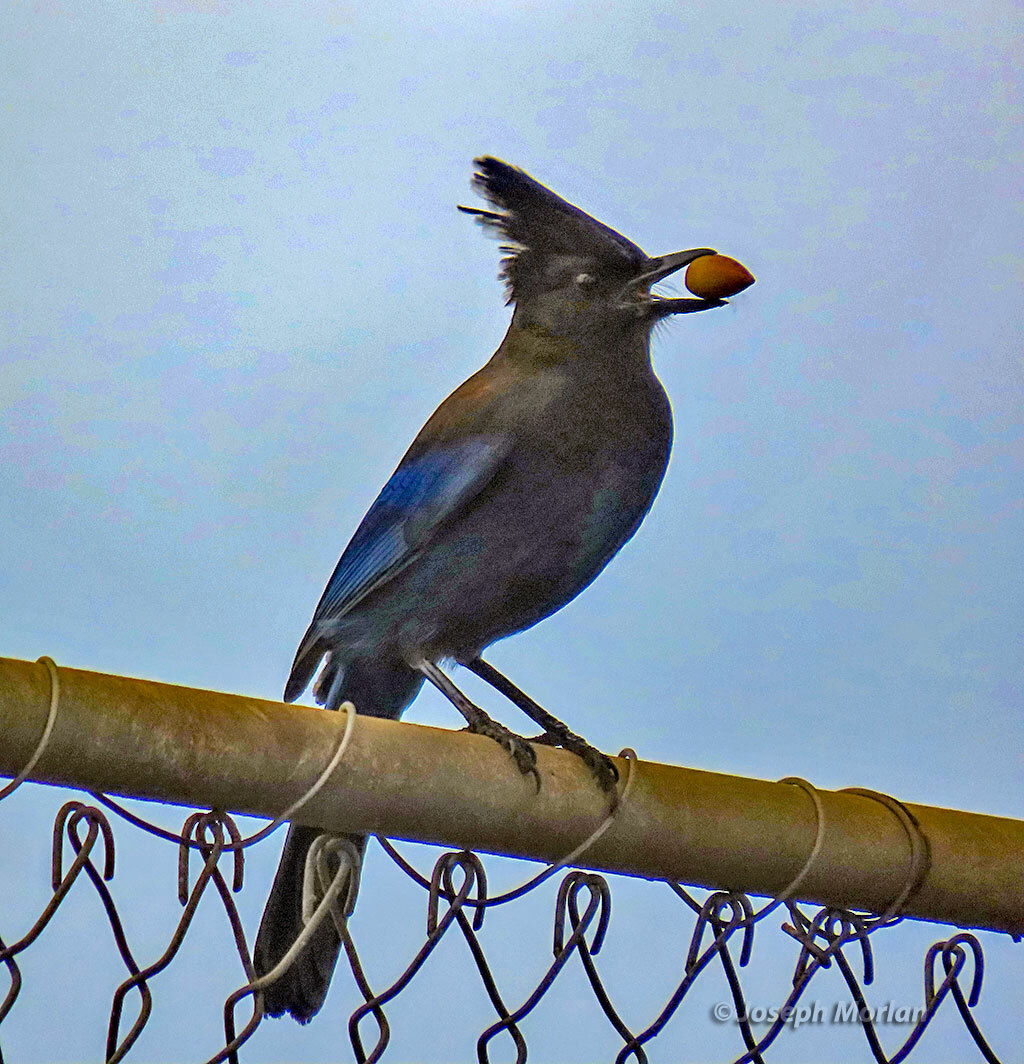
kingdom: Animalia
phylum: Chordata
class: Aves
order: Passeriformes
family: Corvidae
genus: Cyanocitta
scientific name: Cyanocitta stelleri
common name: Steller's jay
